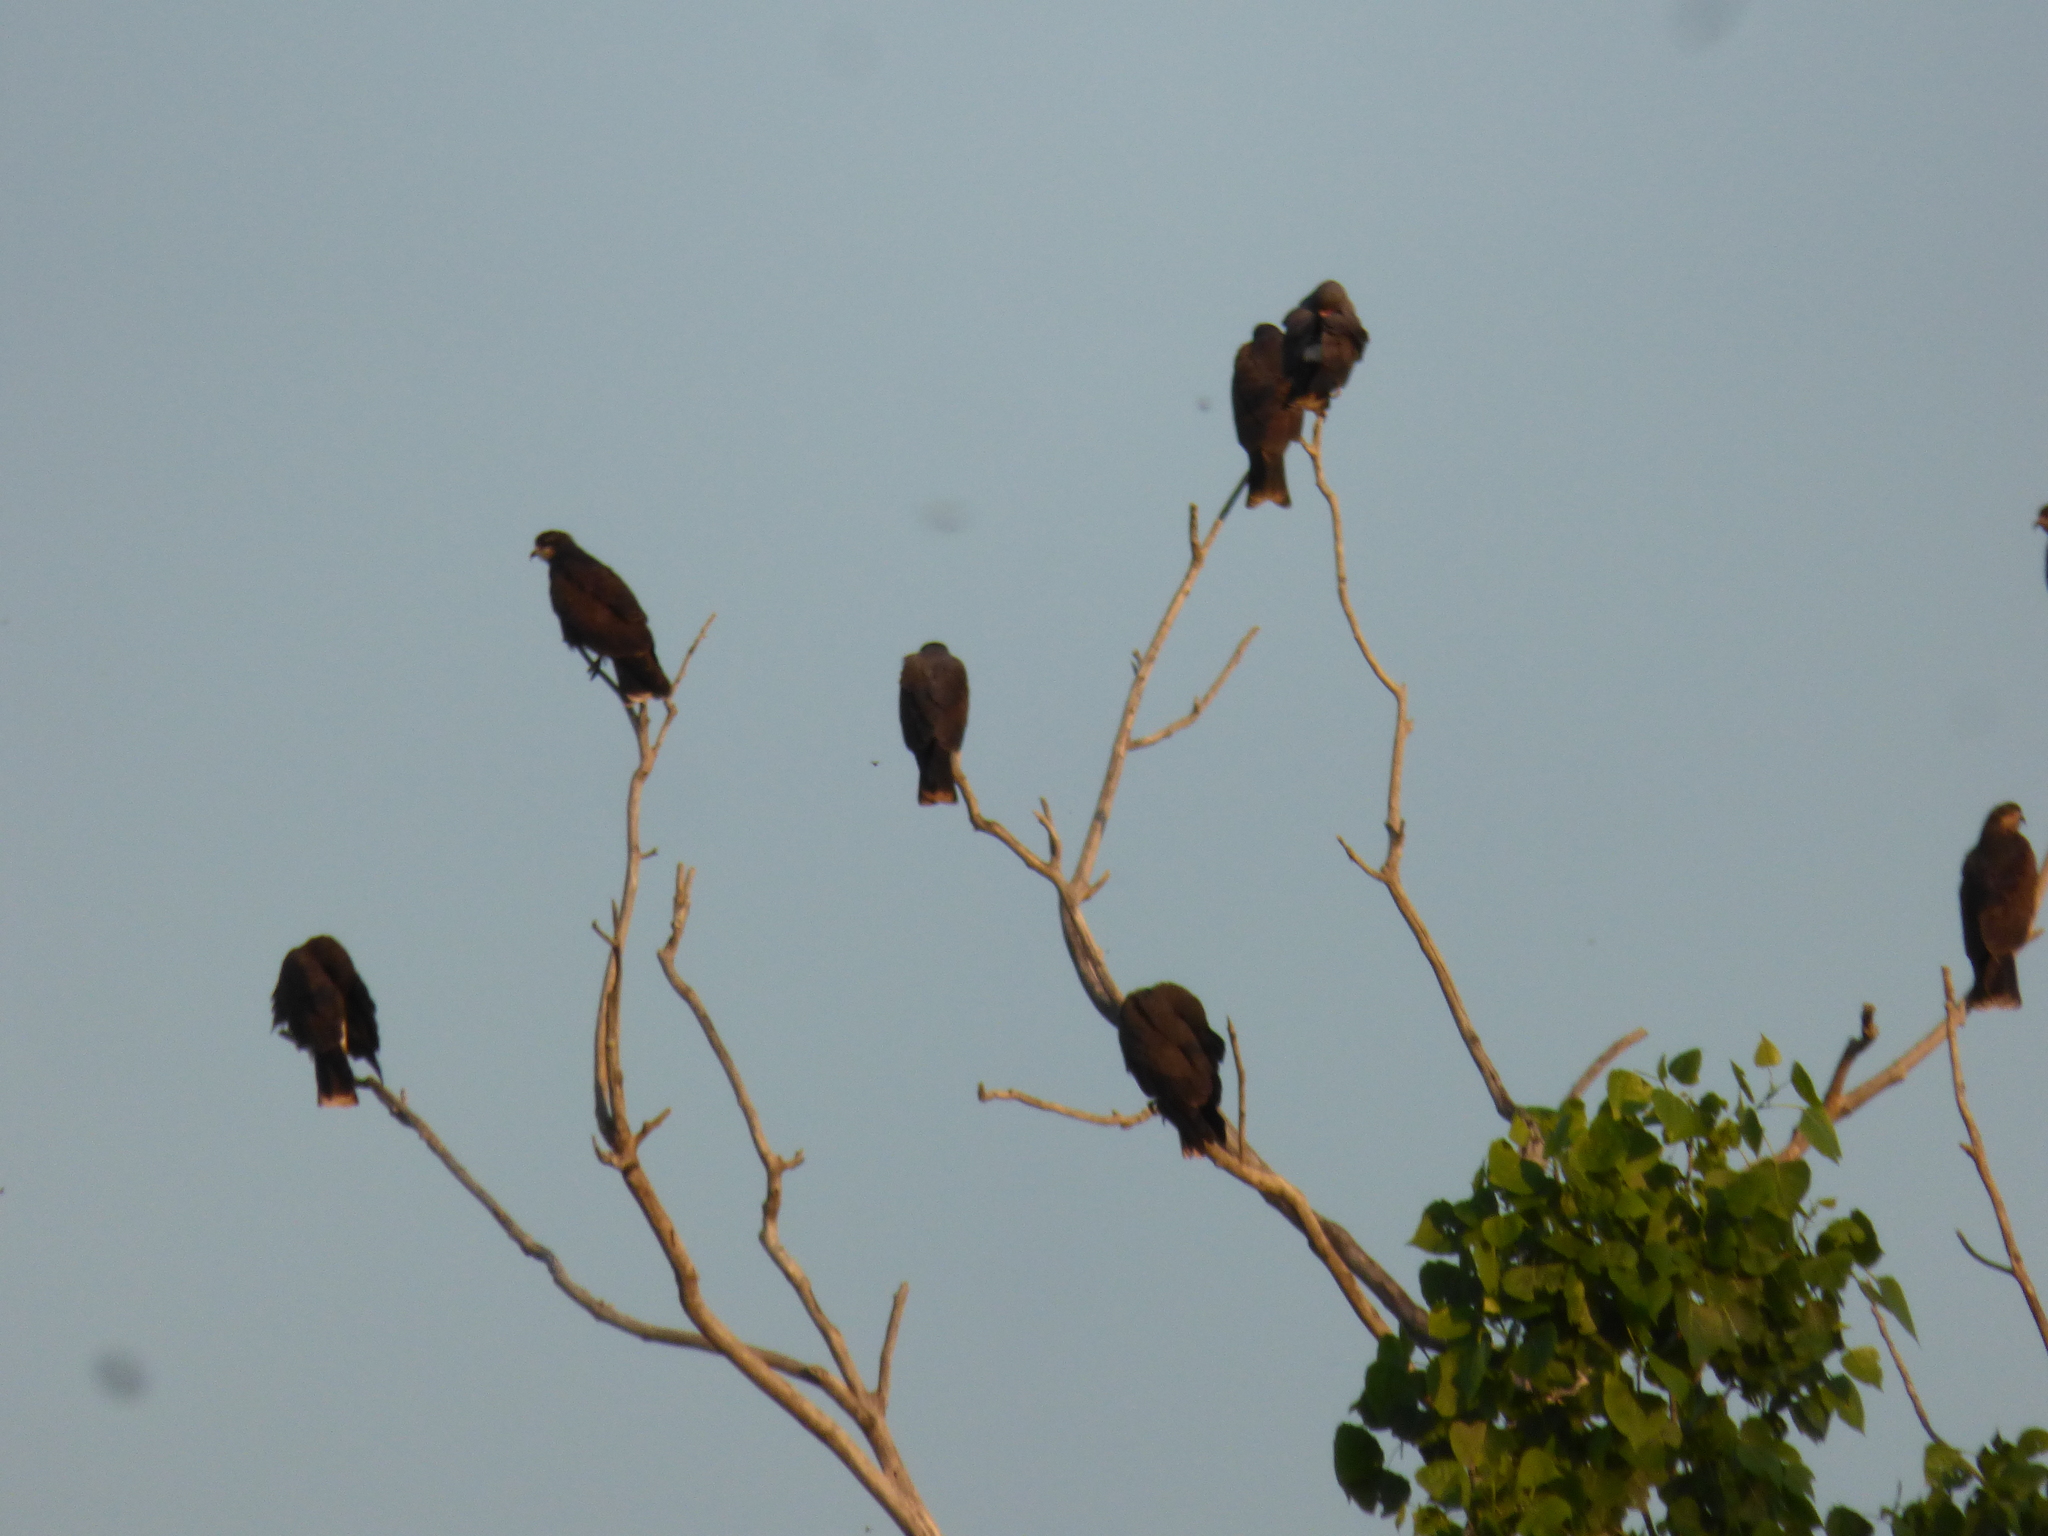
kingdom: Animalia
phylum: Chordata
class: Aves
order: Accipitriformes
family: Accipitridae
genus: Rostrhamus
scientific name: Rostrhamus sociabilis
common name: Snail kite
